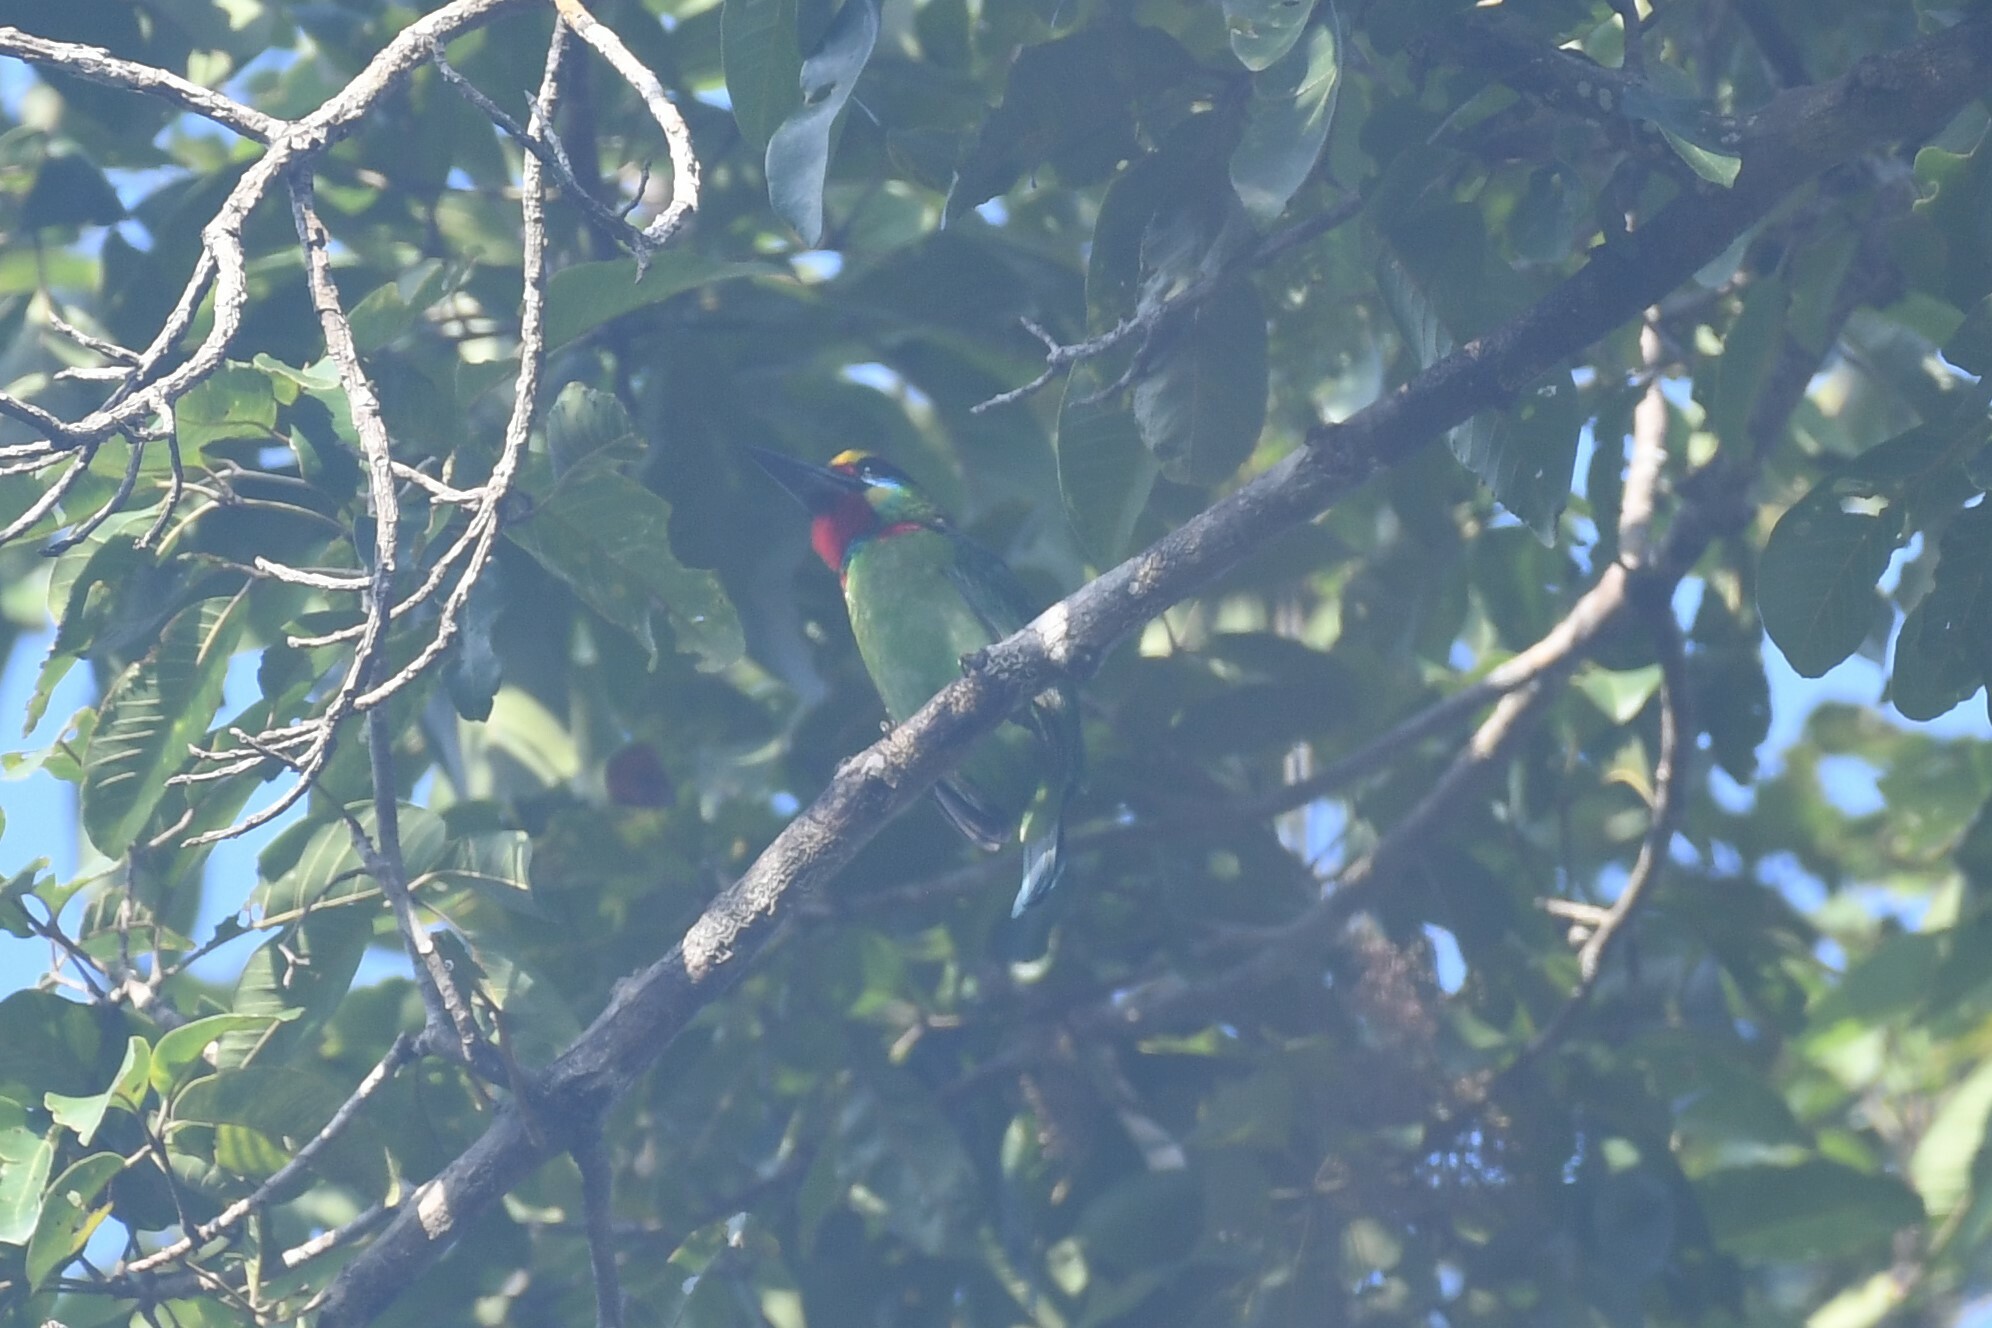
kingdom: Animalia
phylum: Chordata
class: Aves
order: Piciformes
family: Megalaimidae
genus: Psilopogon
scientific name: Psilopogon mystacophanos
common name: Red-throated barbet
